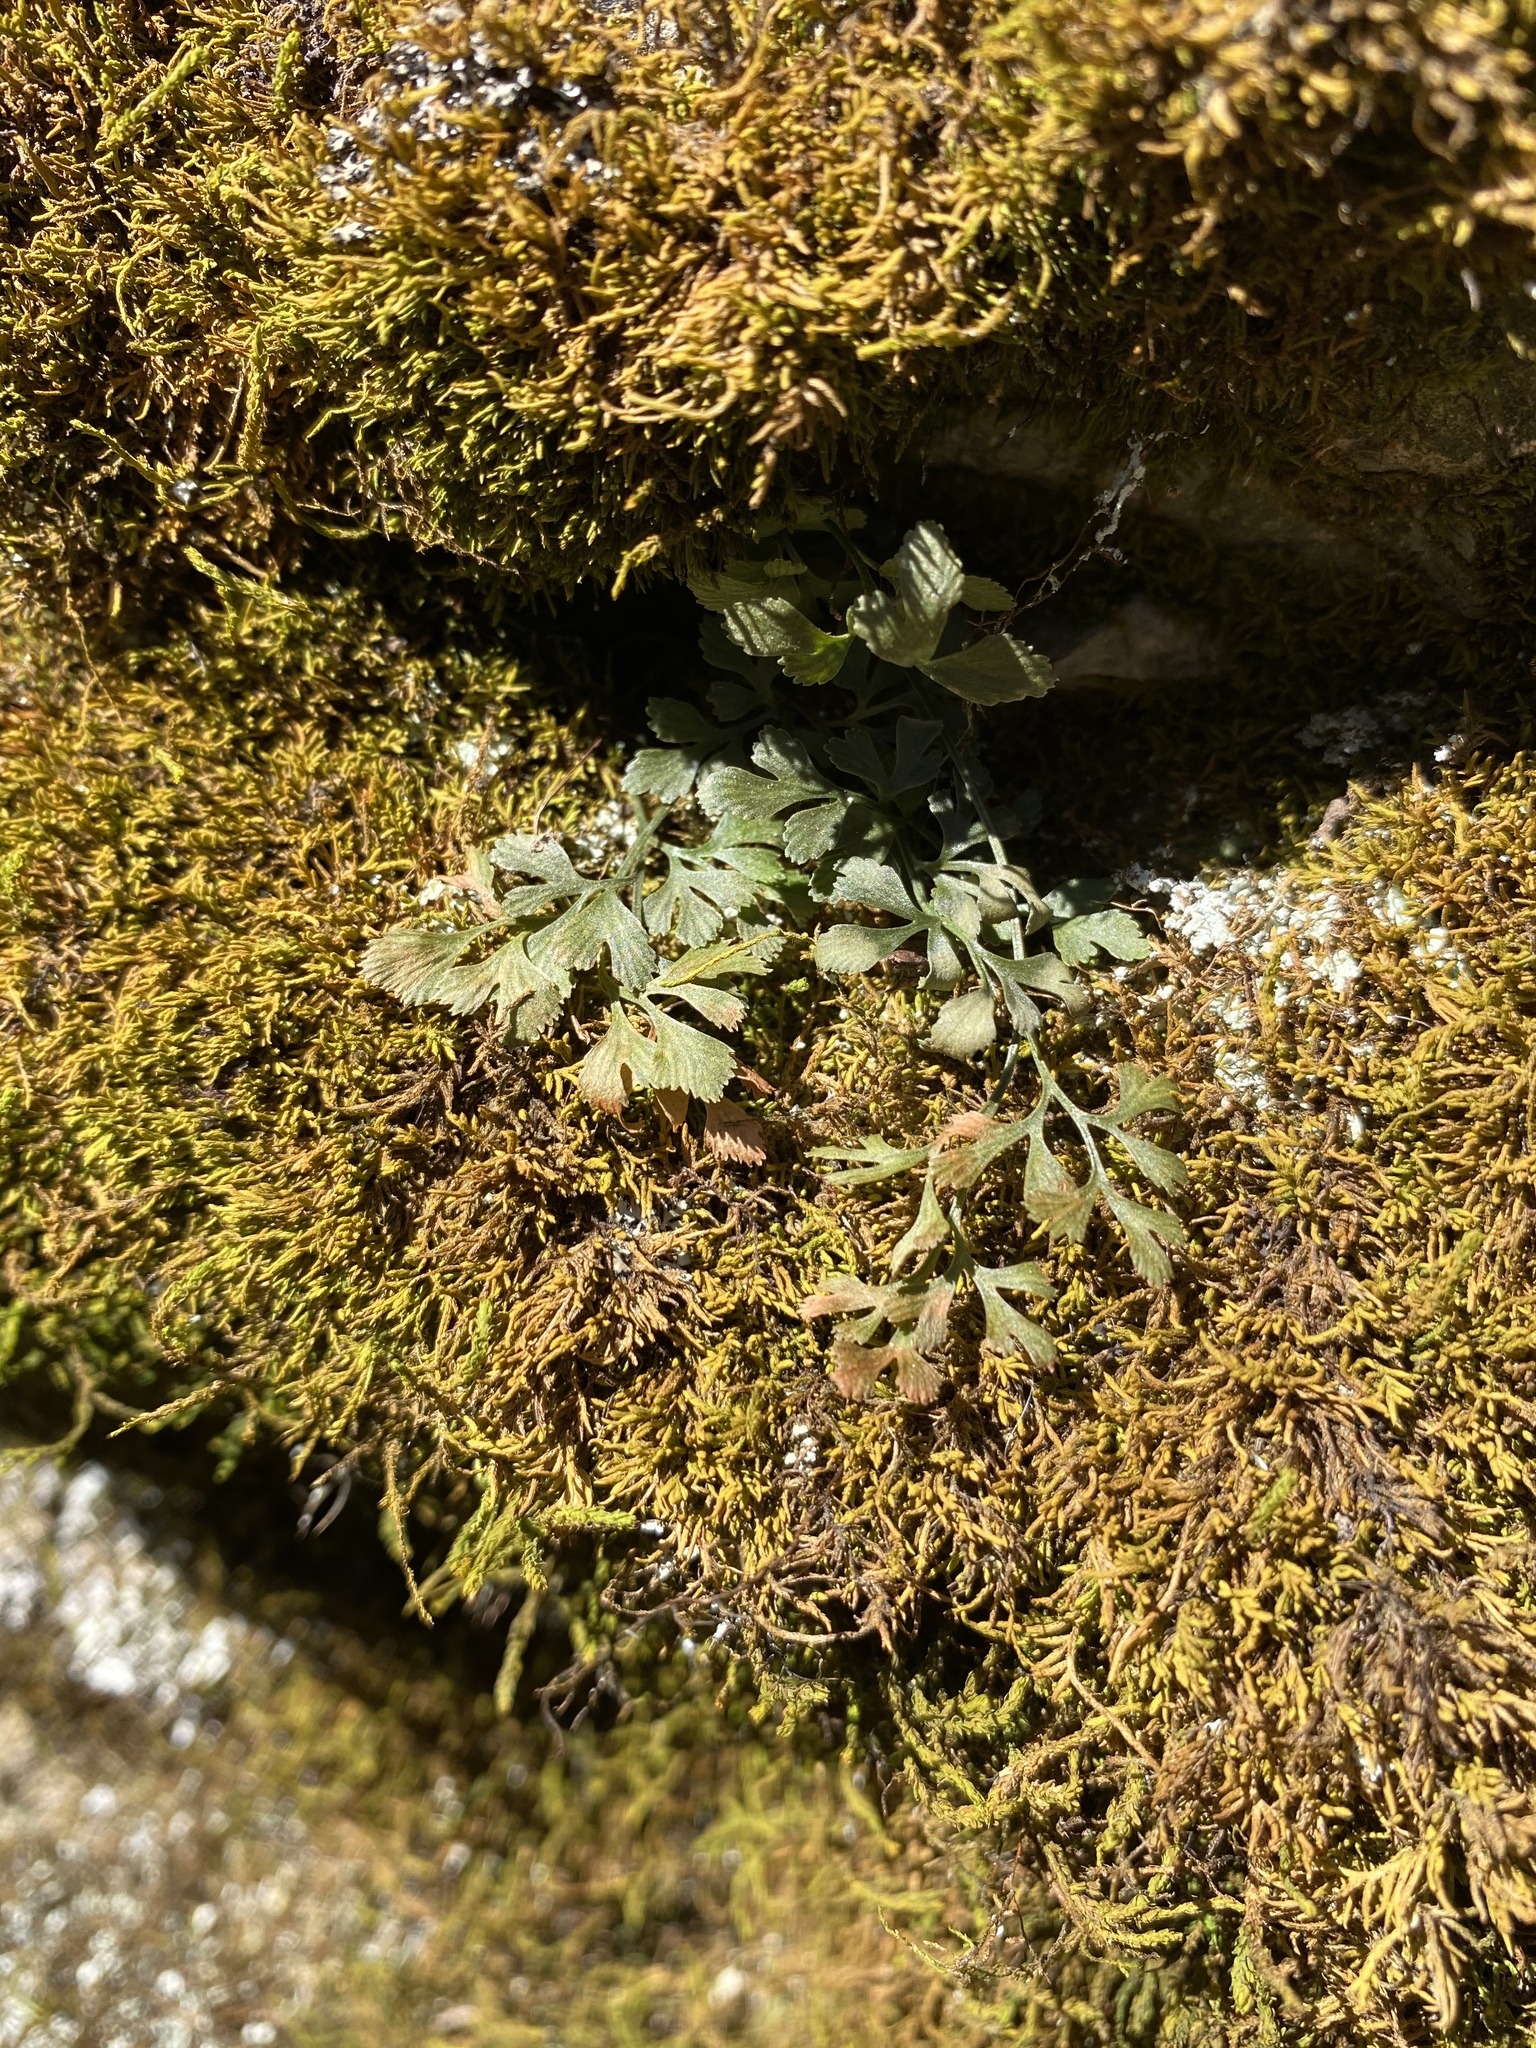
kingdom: Plantae
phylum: Tracheophyta
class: Polypodiopsida
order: Polypodiales
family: Aspleniaceae
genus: Asplenium
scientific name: Asplenium ruta-muraria
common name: Wall-rue
